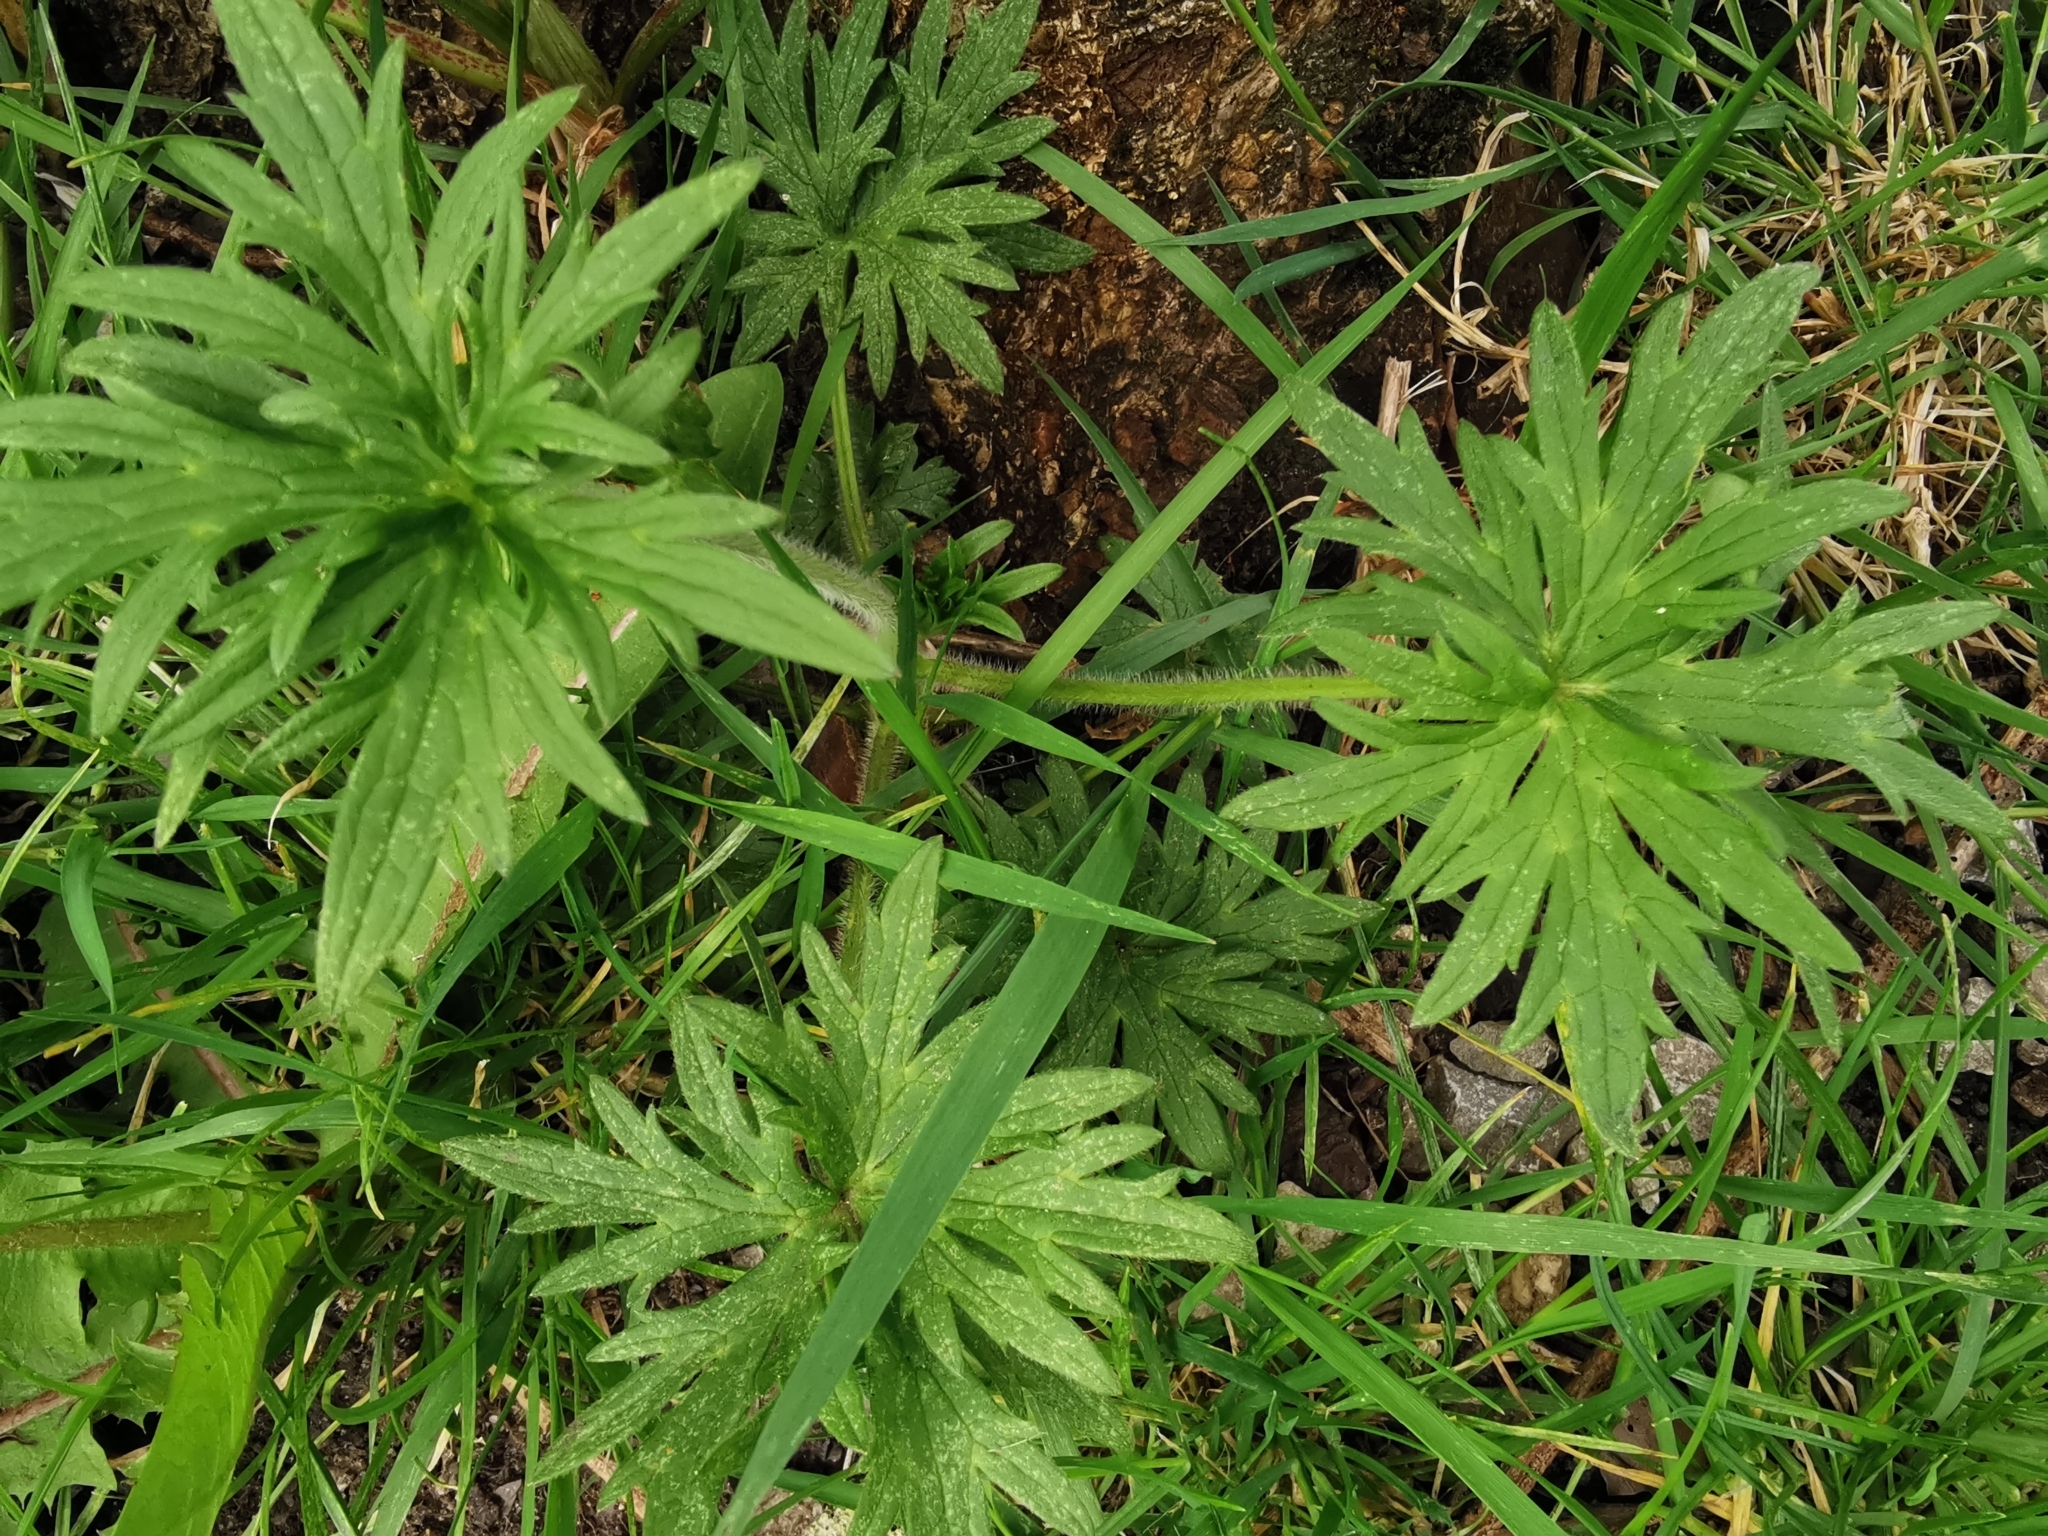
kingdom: Plantae
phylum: Tracheophyta
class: Magnoliopsida
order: Ranunculales
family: Ranunculaceae
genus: Ranunculus
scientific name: Ranunculus acris
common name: Meadow buttercup
